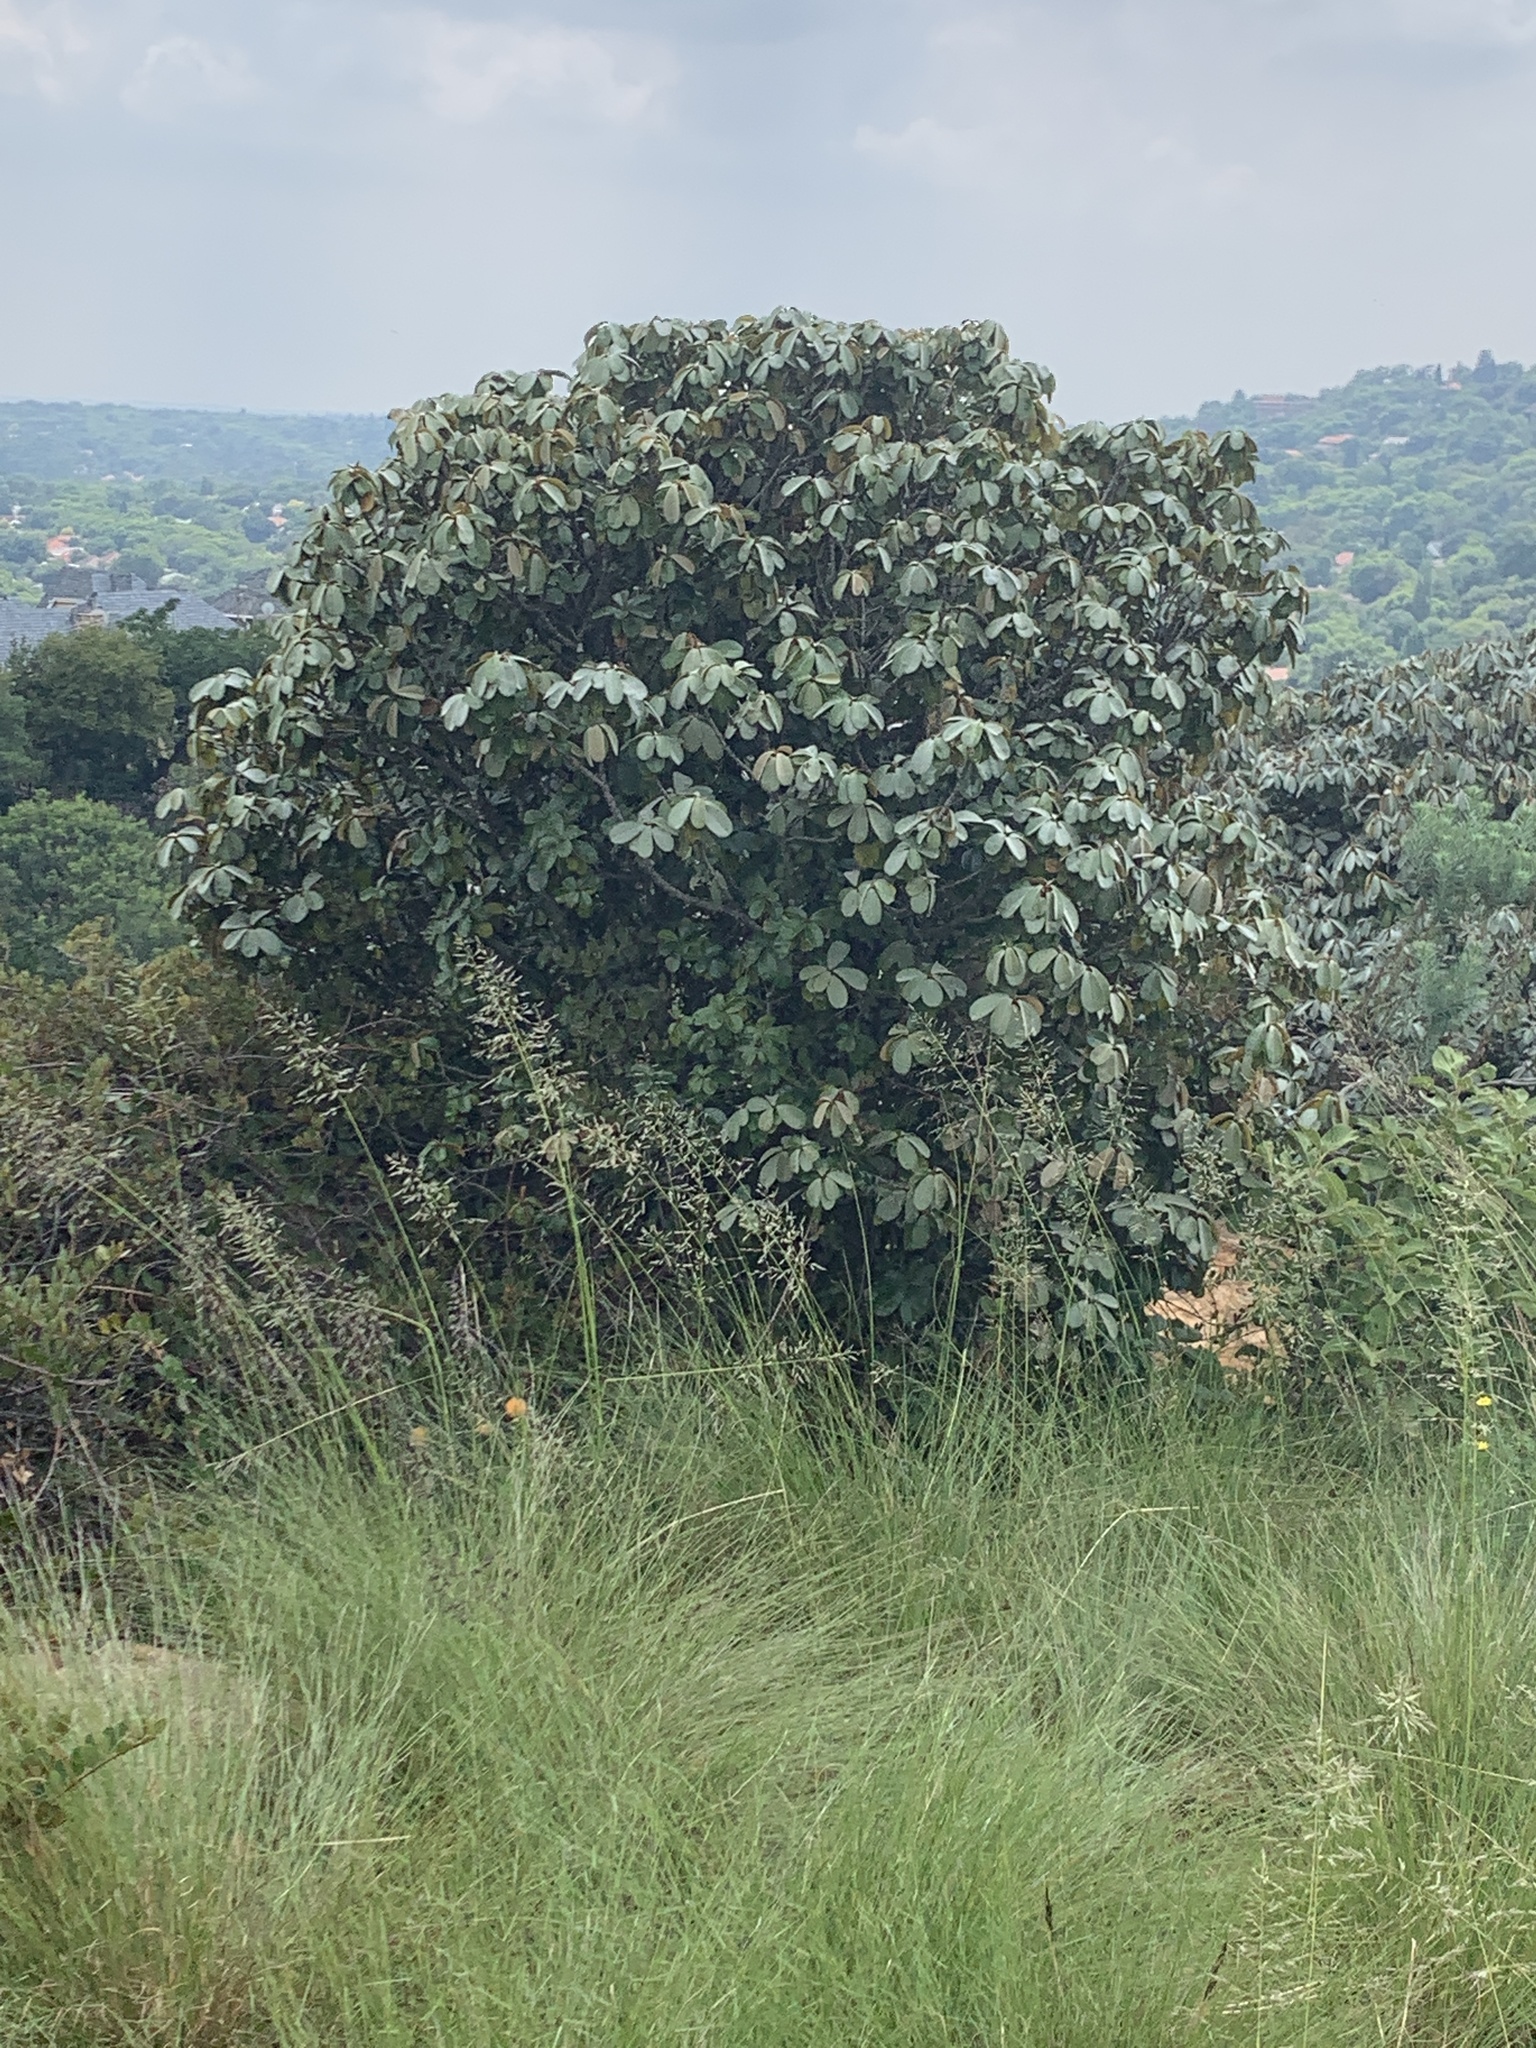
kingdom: Plantae
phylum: Tracheophyta
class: Magnoliopsida
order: Ericales
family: Sapotaceae
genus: Englerophytum
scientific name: Englerophytum magalismontanum
